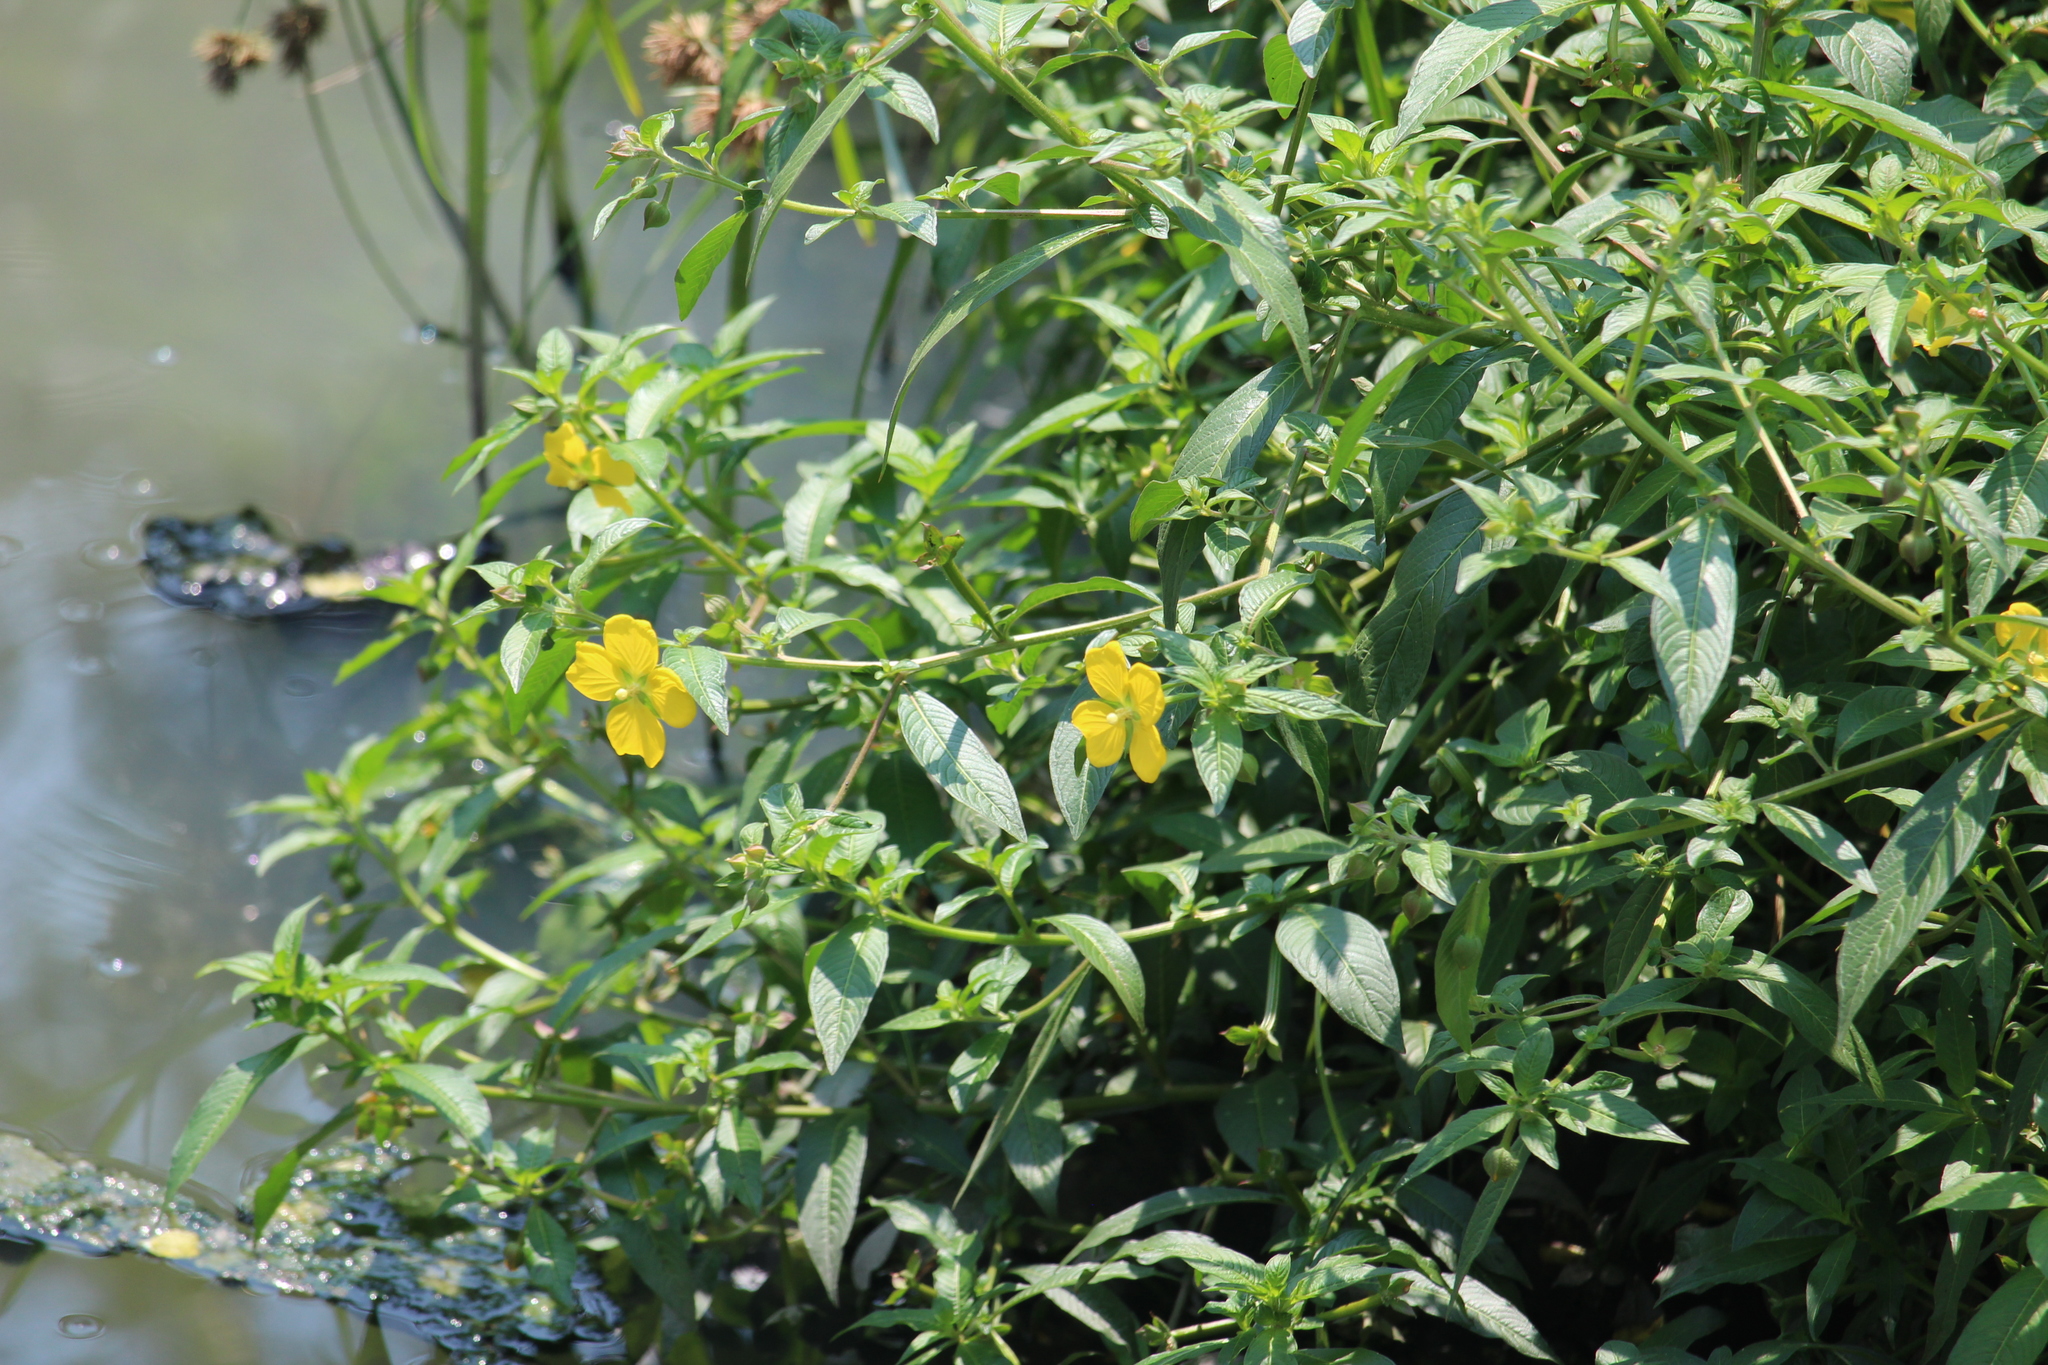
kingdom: Plantae
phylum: Tracheophyta
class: Magnoliopsida
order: Myrtales
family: Onagraceae
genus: Ludwigia
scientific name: Ludwigia octovalvis
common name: Water-primrose
